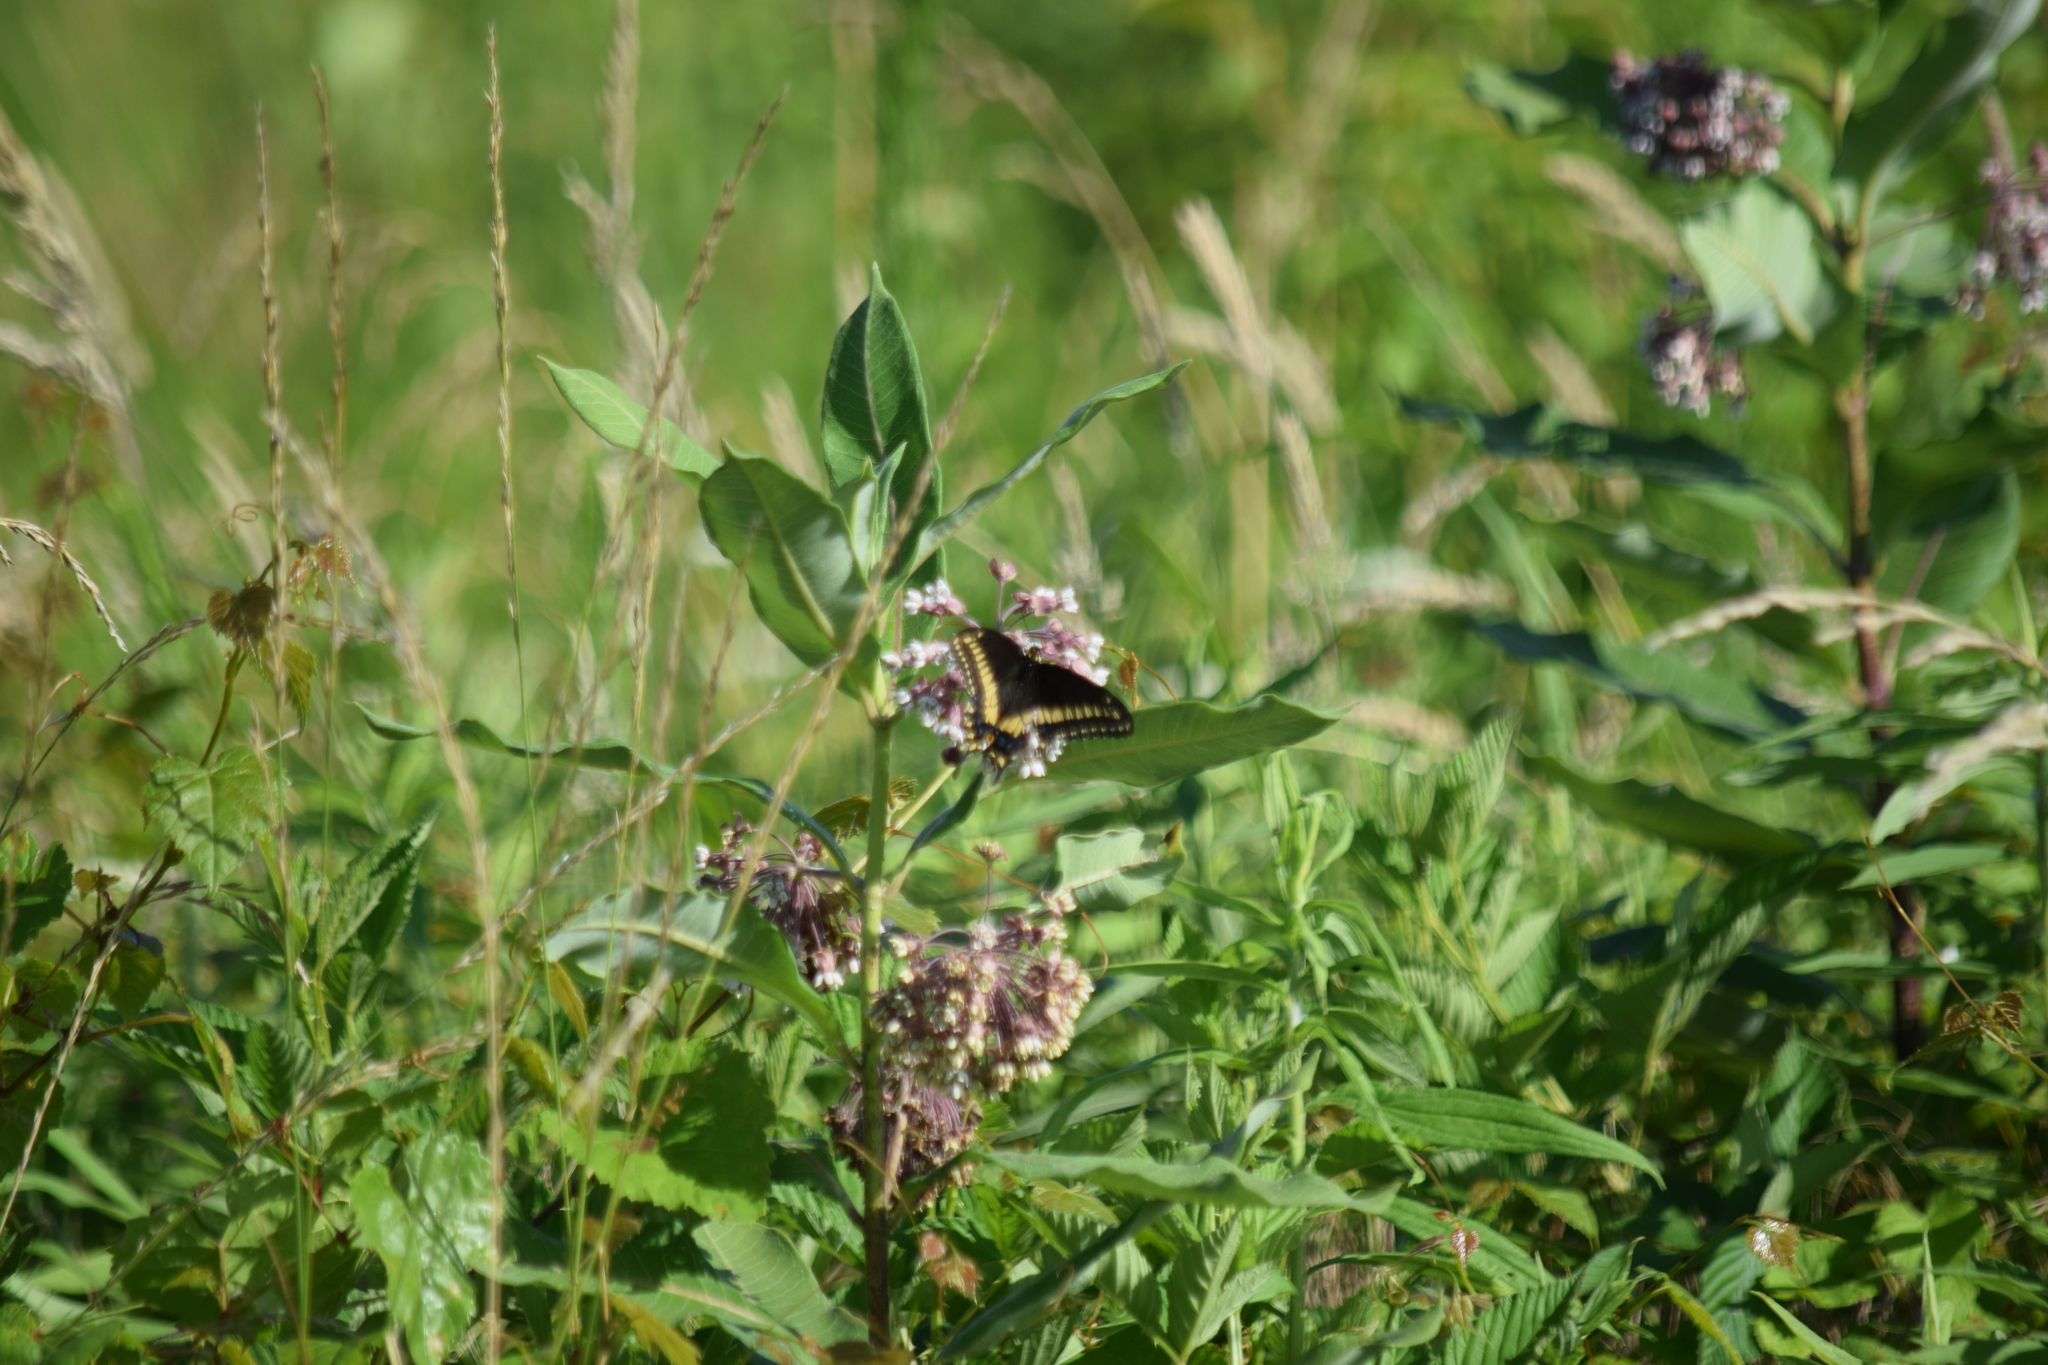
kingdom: Animalia
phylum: Arthropoda
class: Insecta
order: Lepidoptera
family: Papilionidae
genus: Papilio
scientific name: Papilio polyxenes
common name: Black swallowtail
